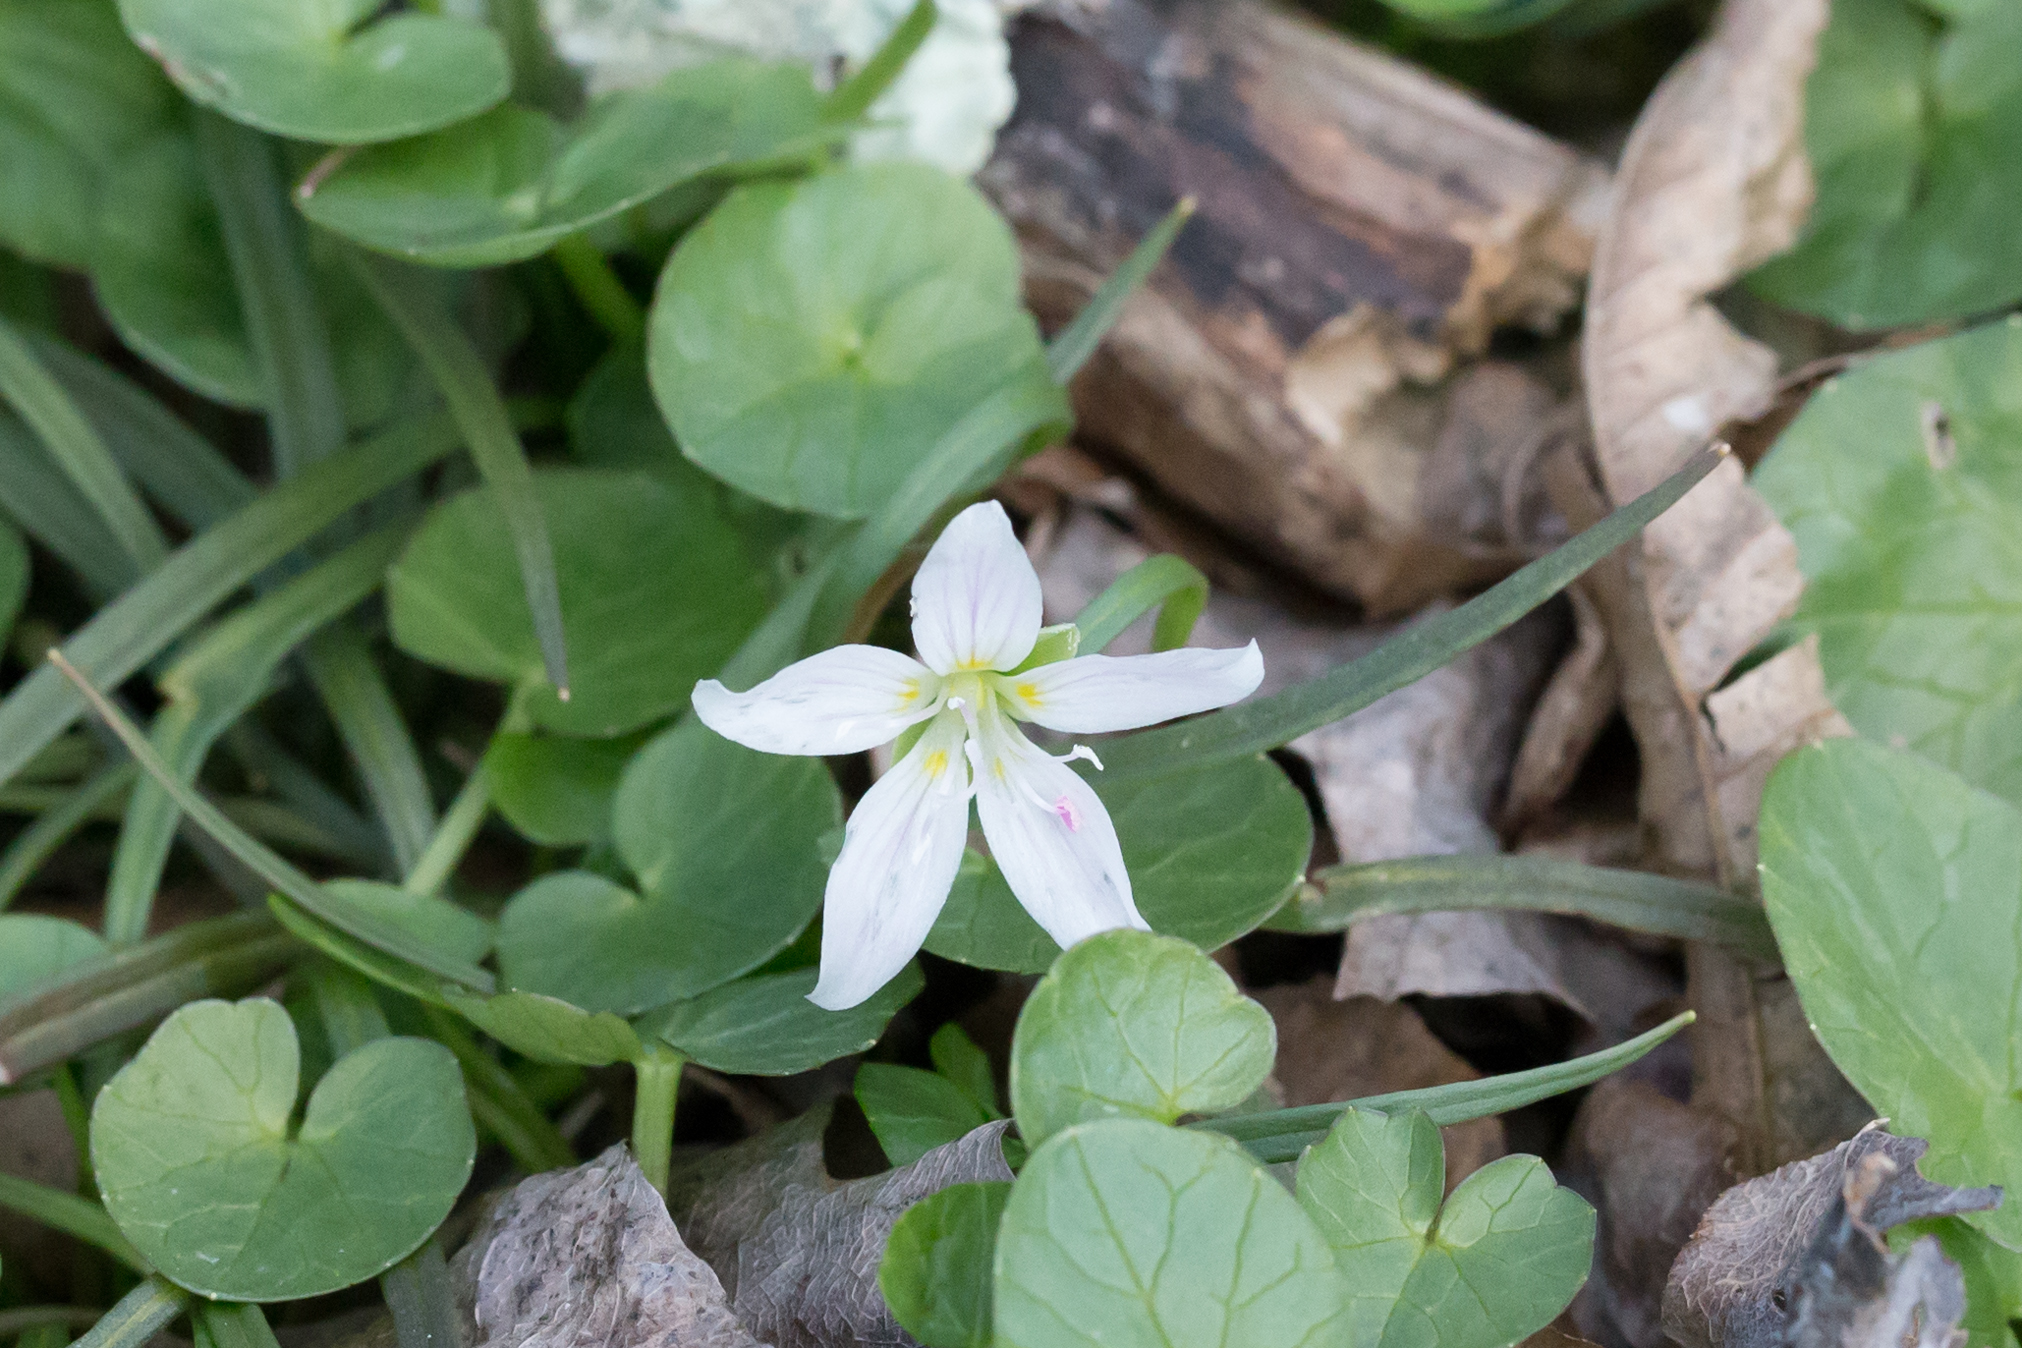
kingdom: Plantae
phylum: Tracheophyta
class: Magnoliopsida
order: Caryophyllales
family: Montiaceae
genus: Claytonia
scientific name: Claytonia virginica
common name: Virginia springbeauty
